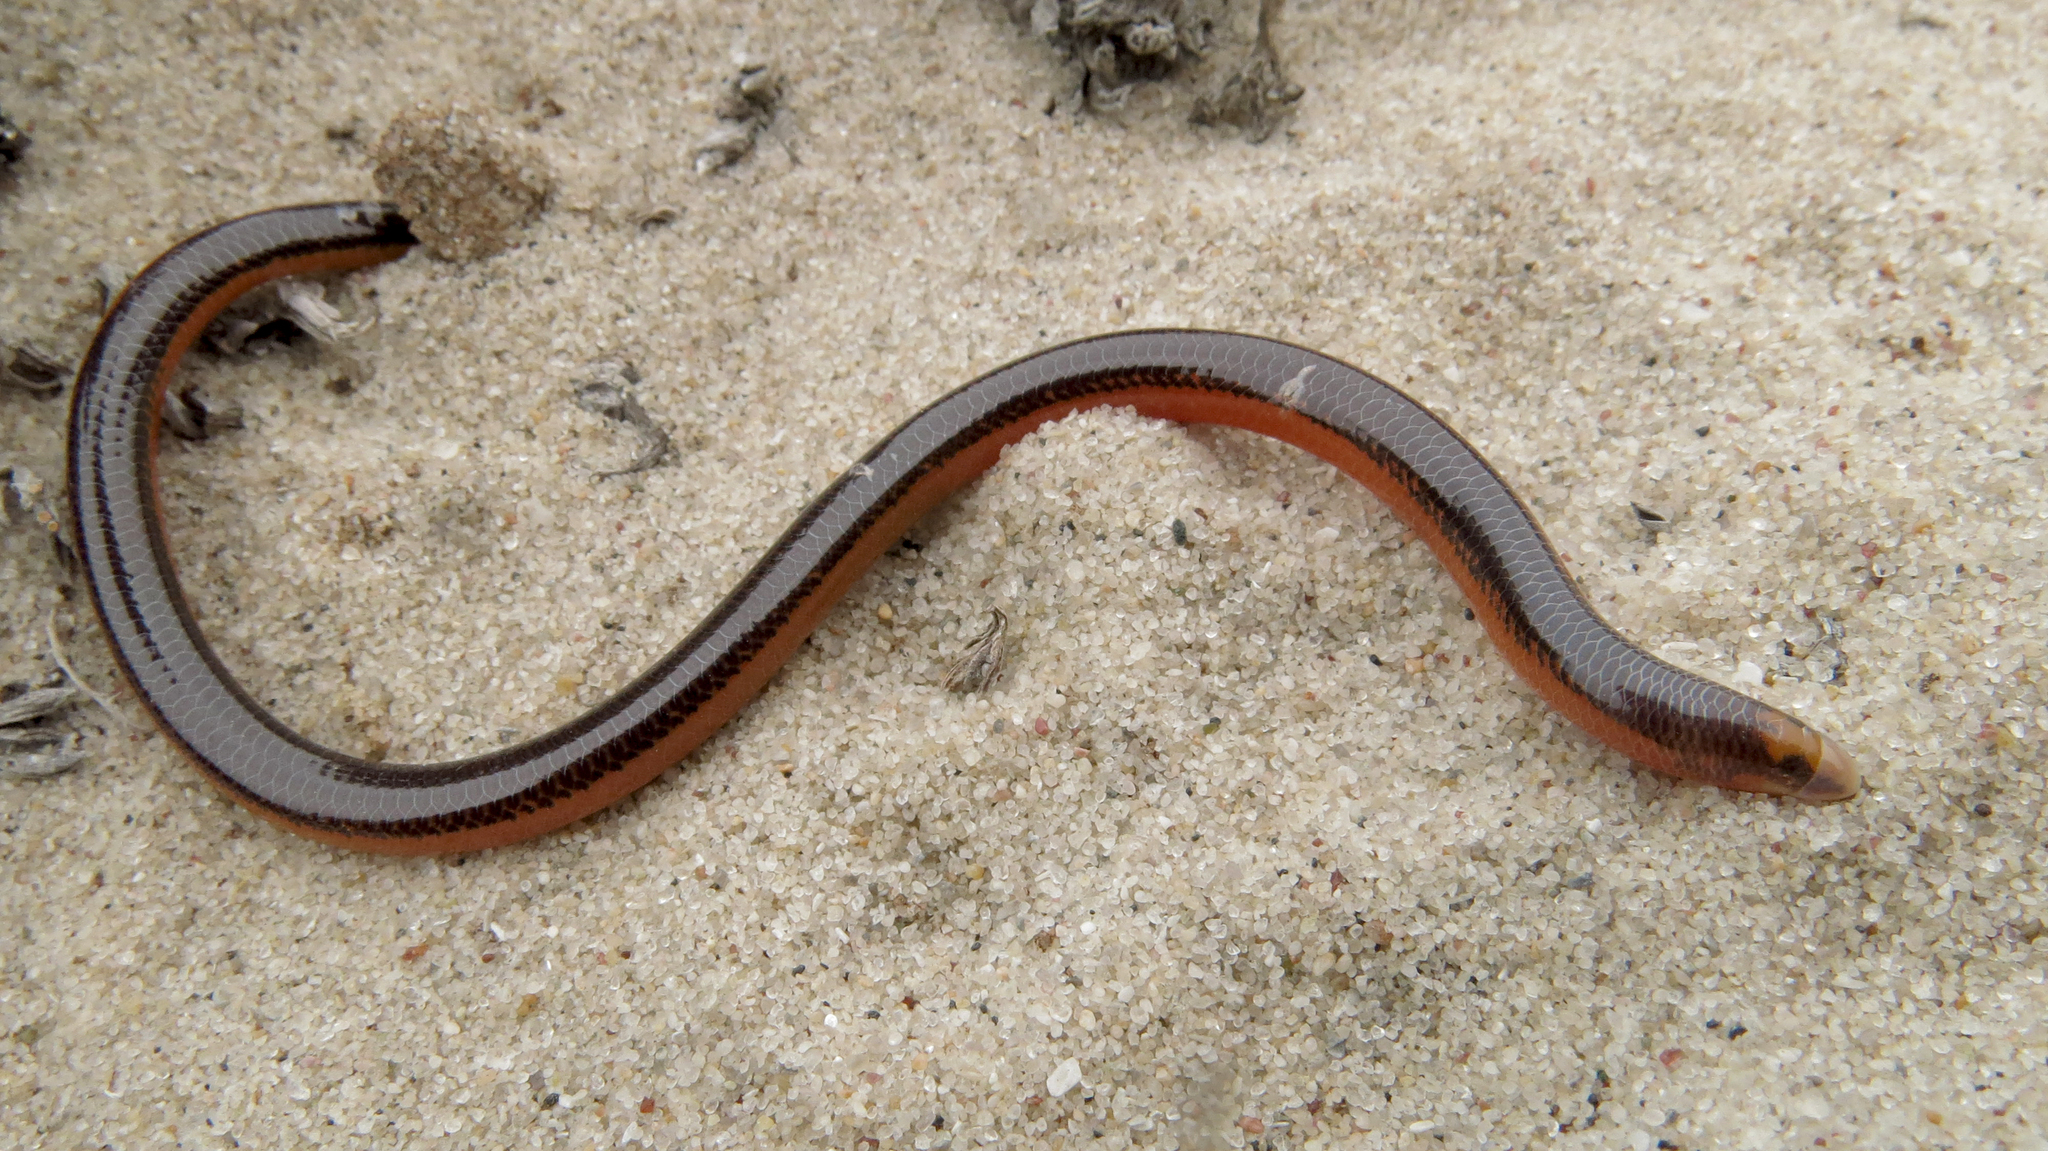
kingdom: Animalia
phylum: Chordata
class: Squamata
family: Scincidae
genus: Acontias
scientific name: Acontias lineatus
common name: Lined lance skink
